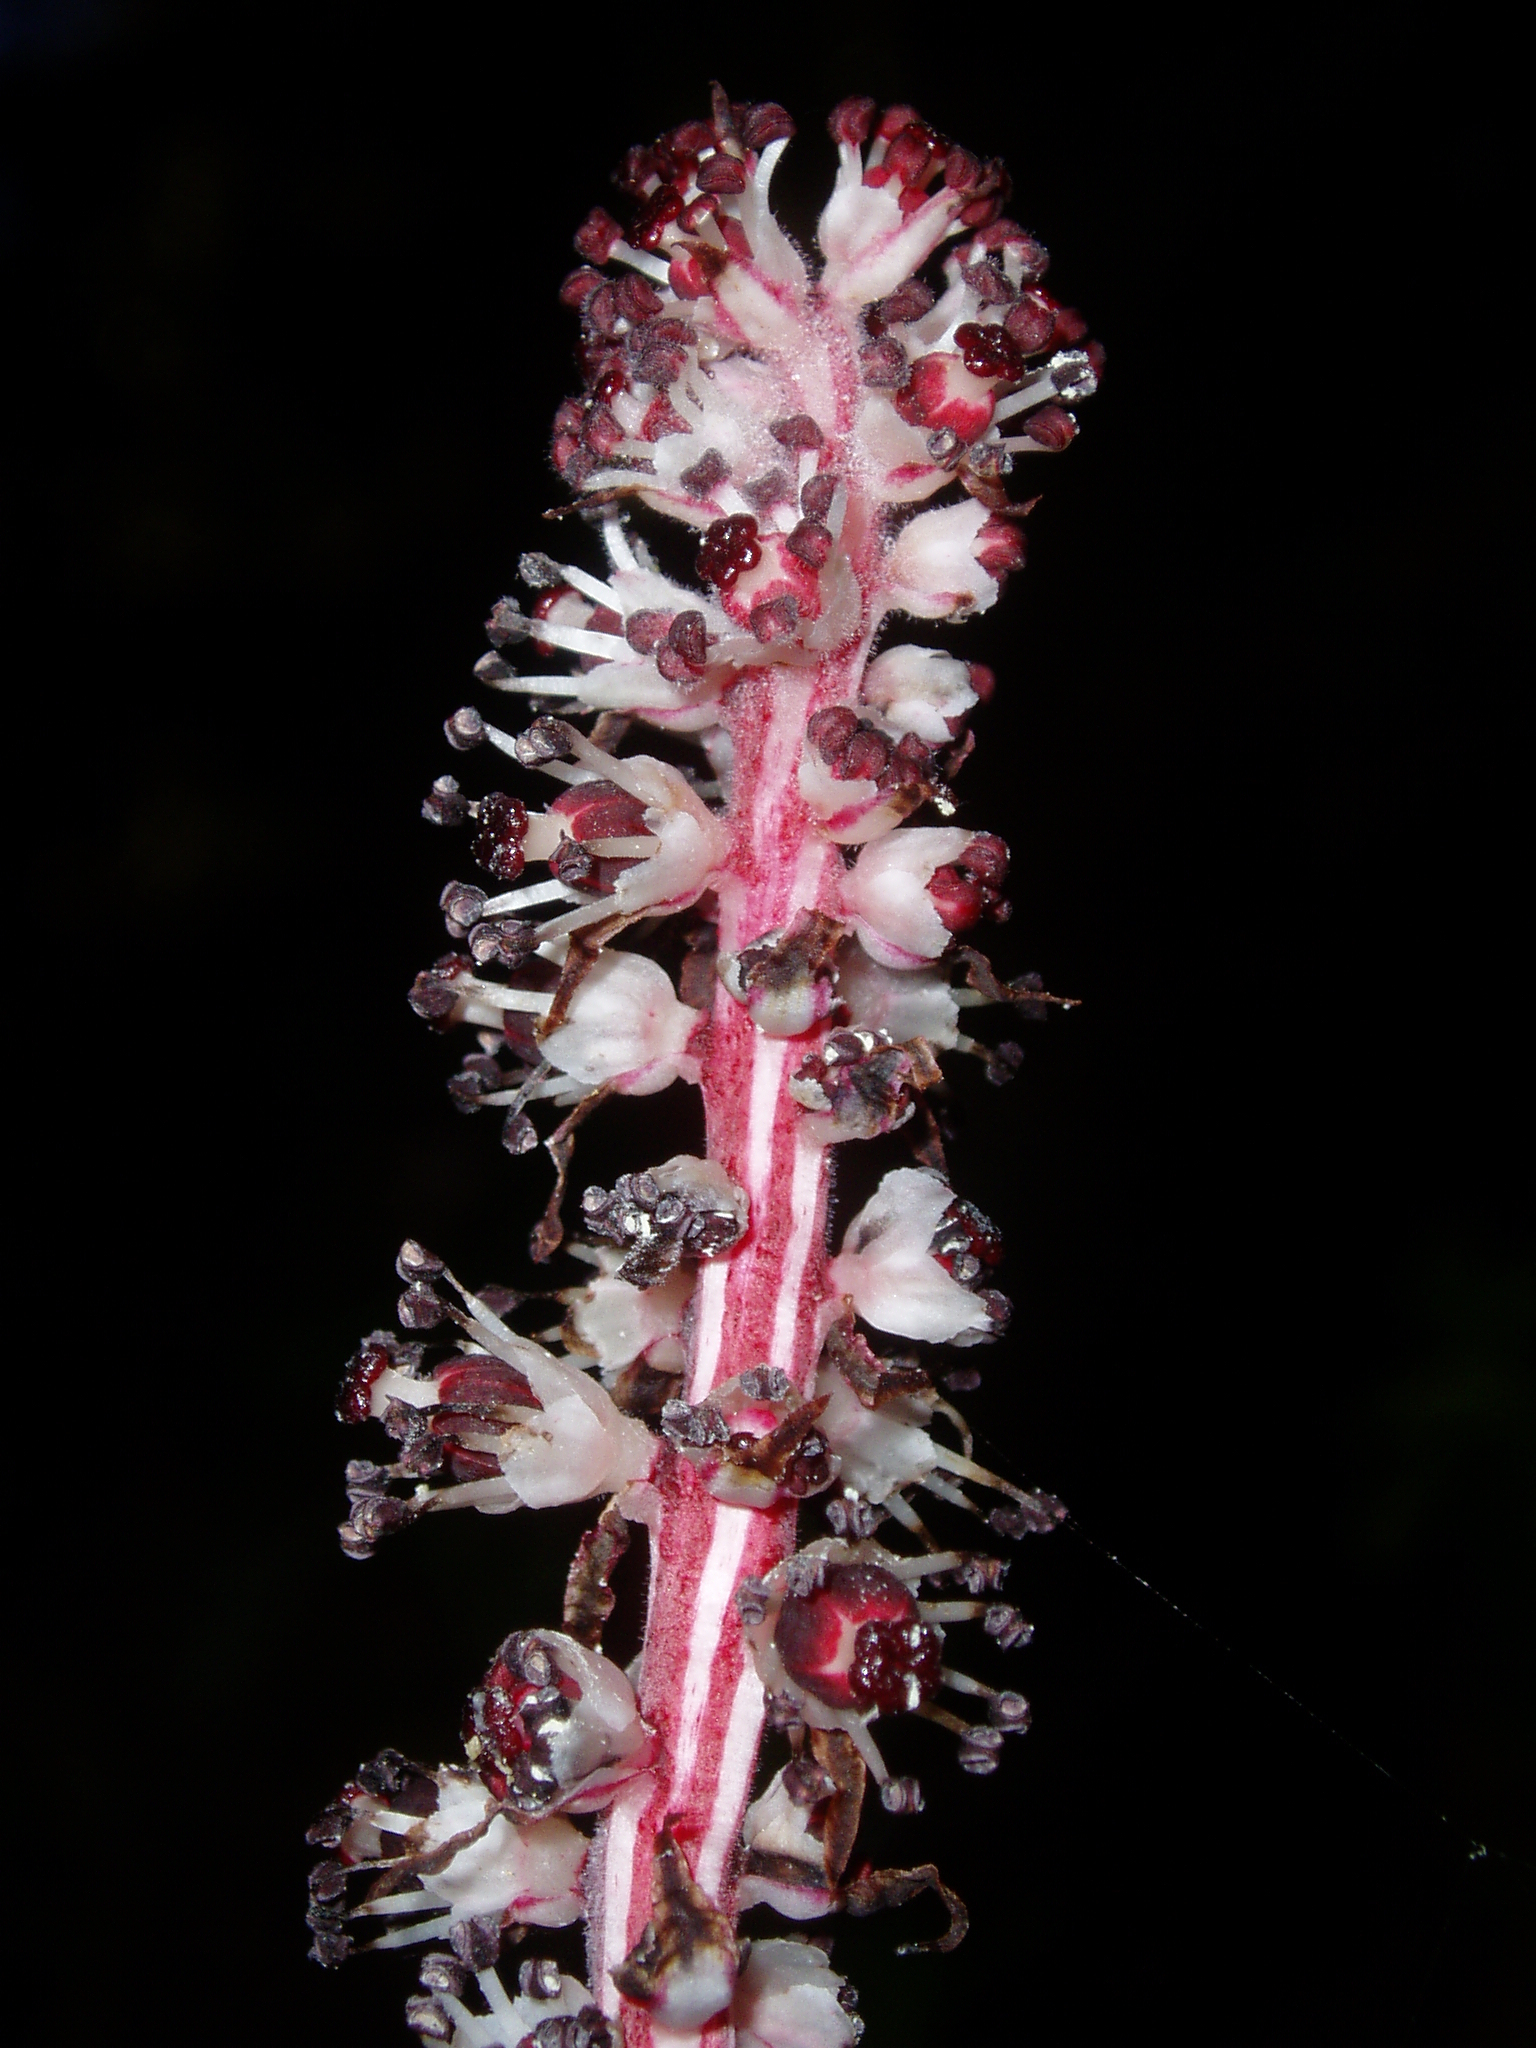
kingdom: Plantae
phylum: Tracheophyta
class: Magnoliopsida
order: Ericales
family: Ericaceae
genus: Allotropa
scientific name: Allotropa virgata
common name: Candy-striped allotropa
